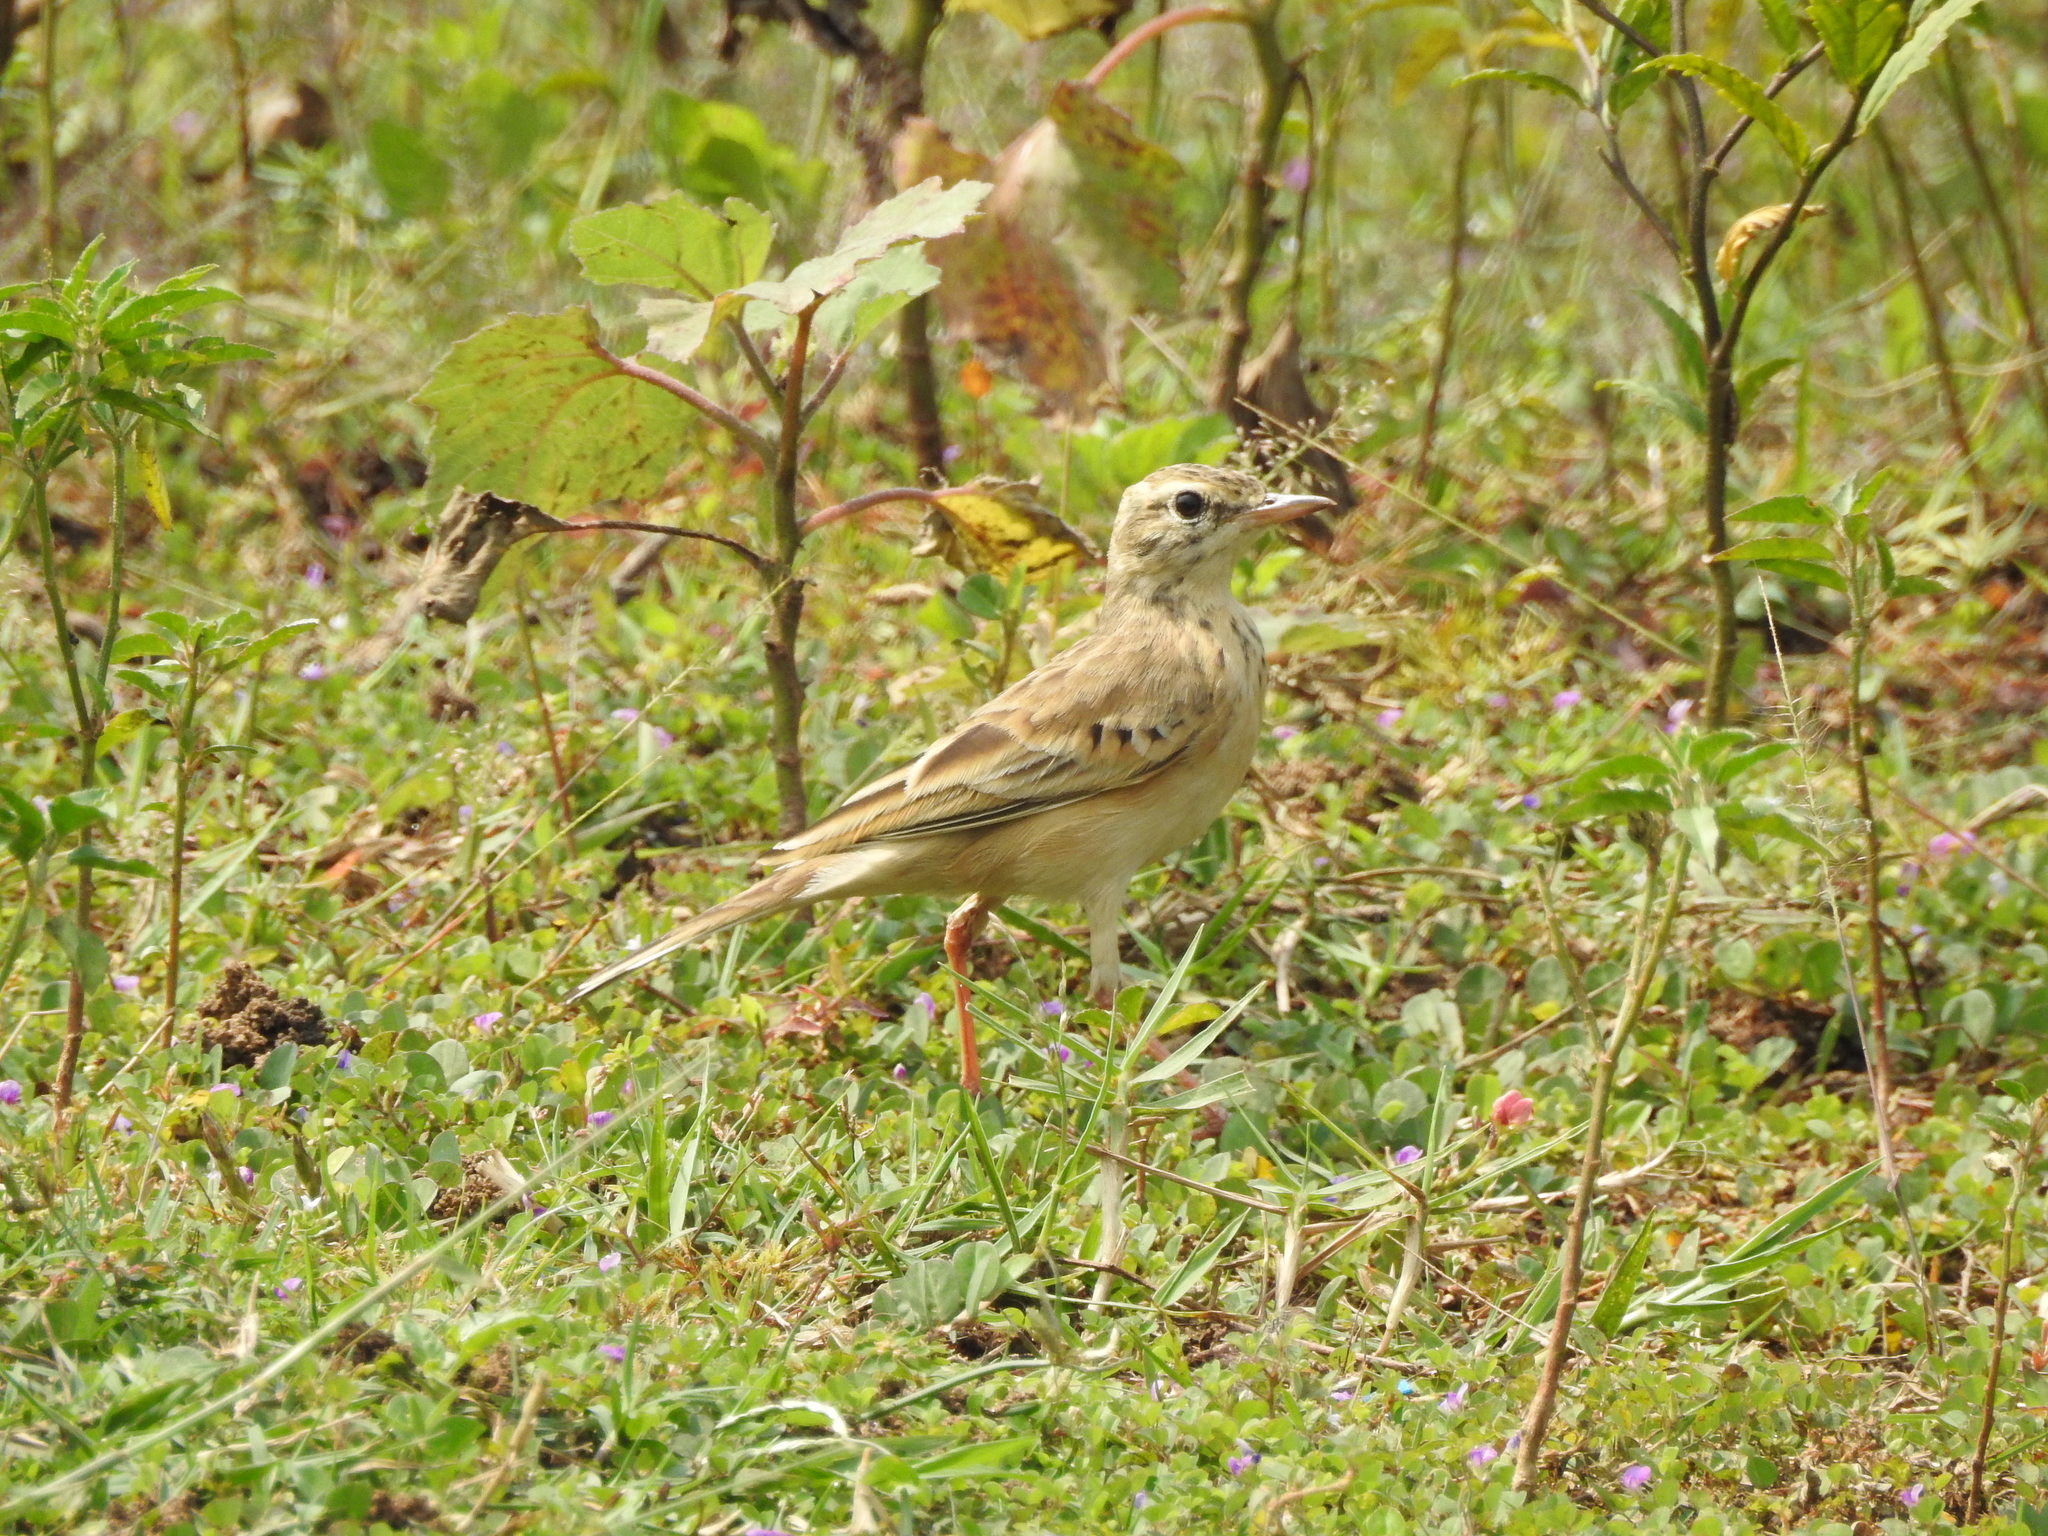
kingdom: Animalia
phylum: Chordata
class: Aves
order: Passeriformes
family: Motacillidae
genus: Anthus
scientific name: Anthus rufulus
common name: Paddyfield pipit
